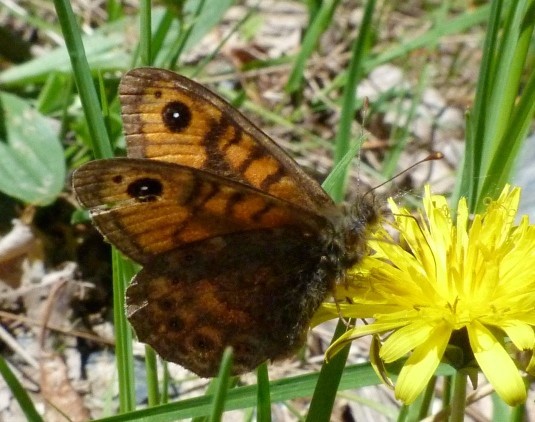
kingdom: Animalia
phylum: Arthropoda
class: Insecta
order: Lepidoptera
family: Nymphalidae
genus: Pararge
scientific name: Pararge Lasiommata megera
